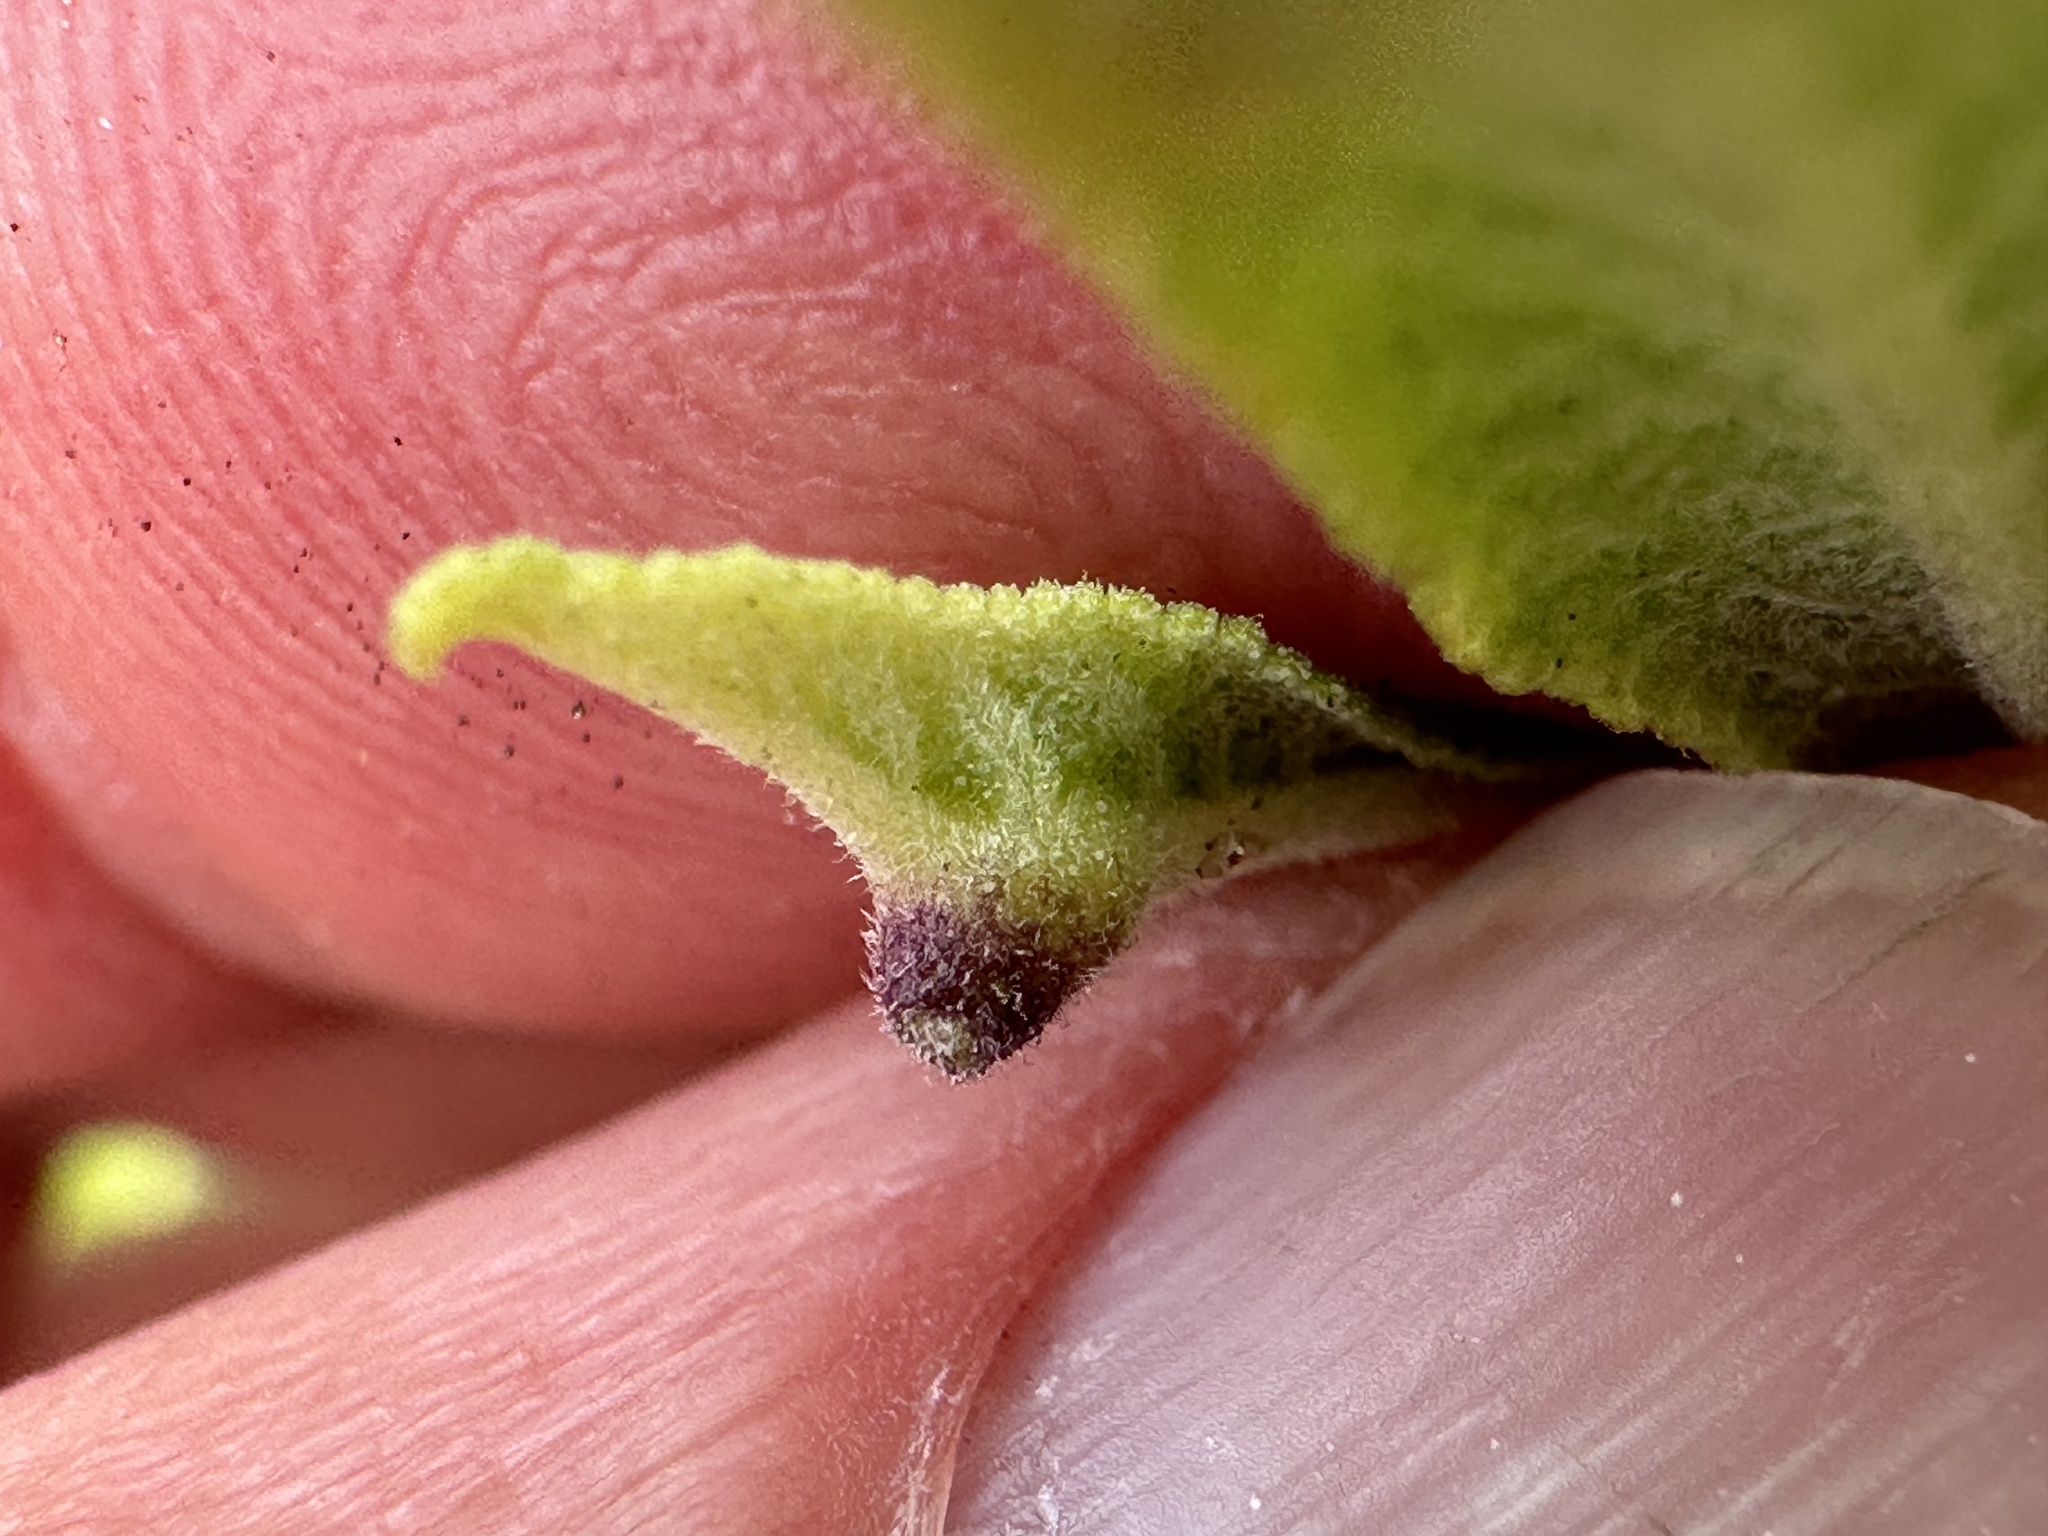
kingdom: Animalia
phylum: Arthropoda
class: Insecta
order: Diptera
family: Cecidomyiidae
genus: Rhopalomyia
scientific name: Rhopalomyia audibertiae
